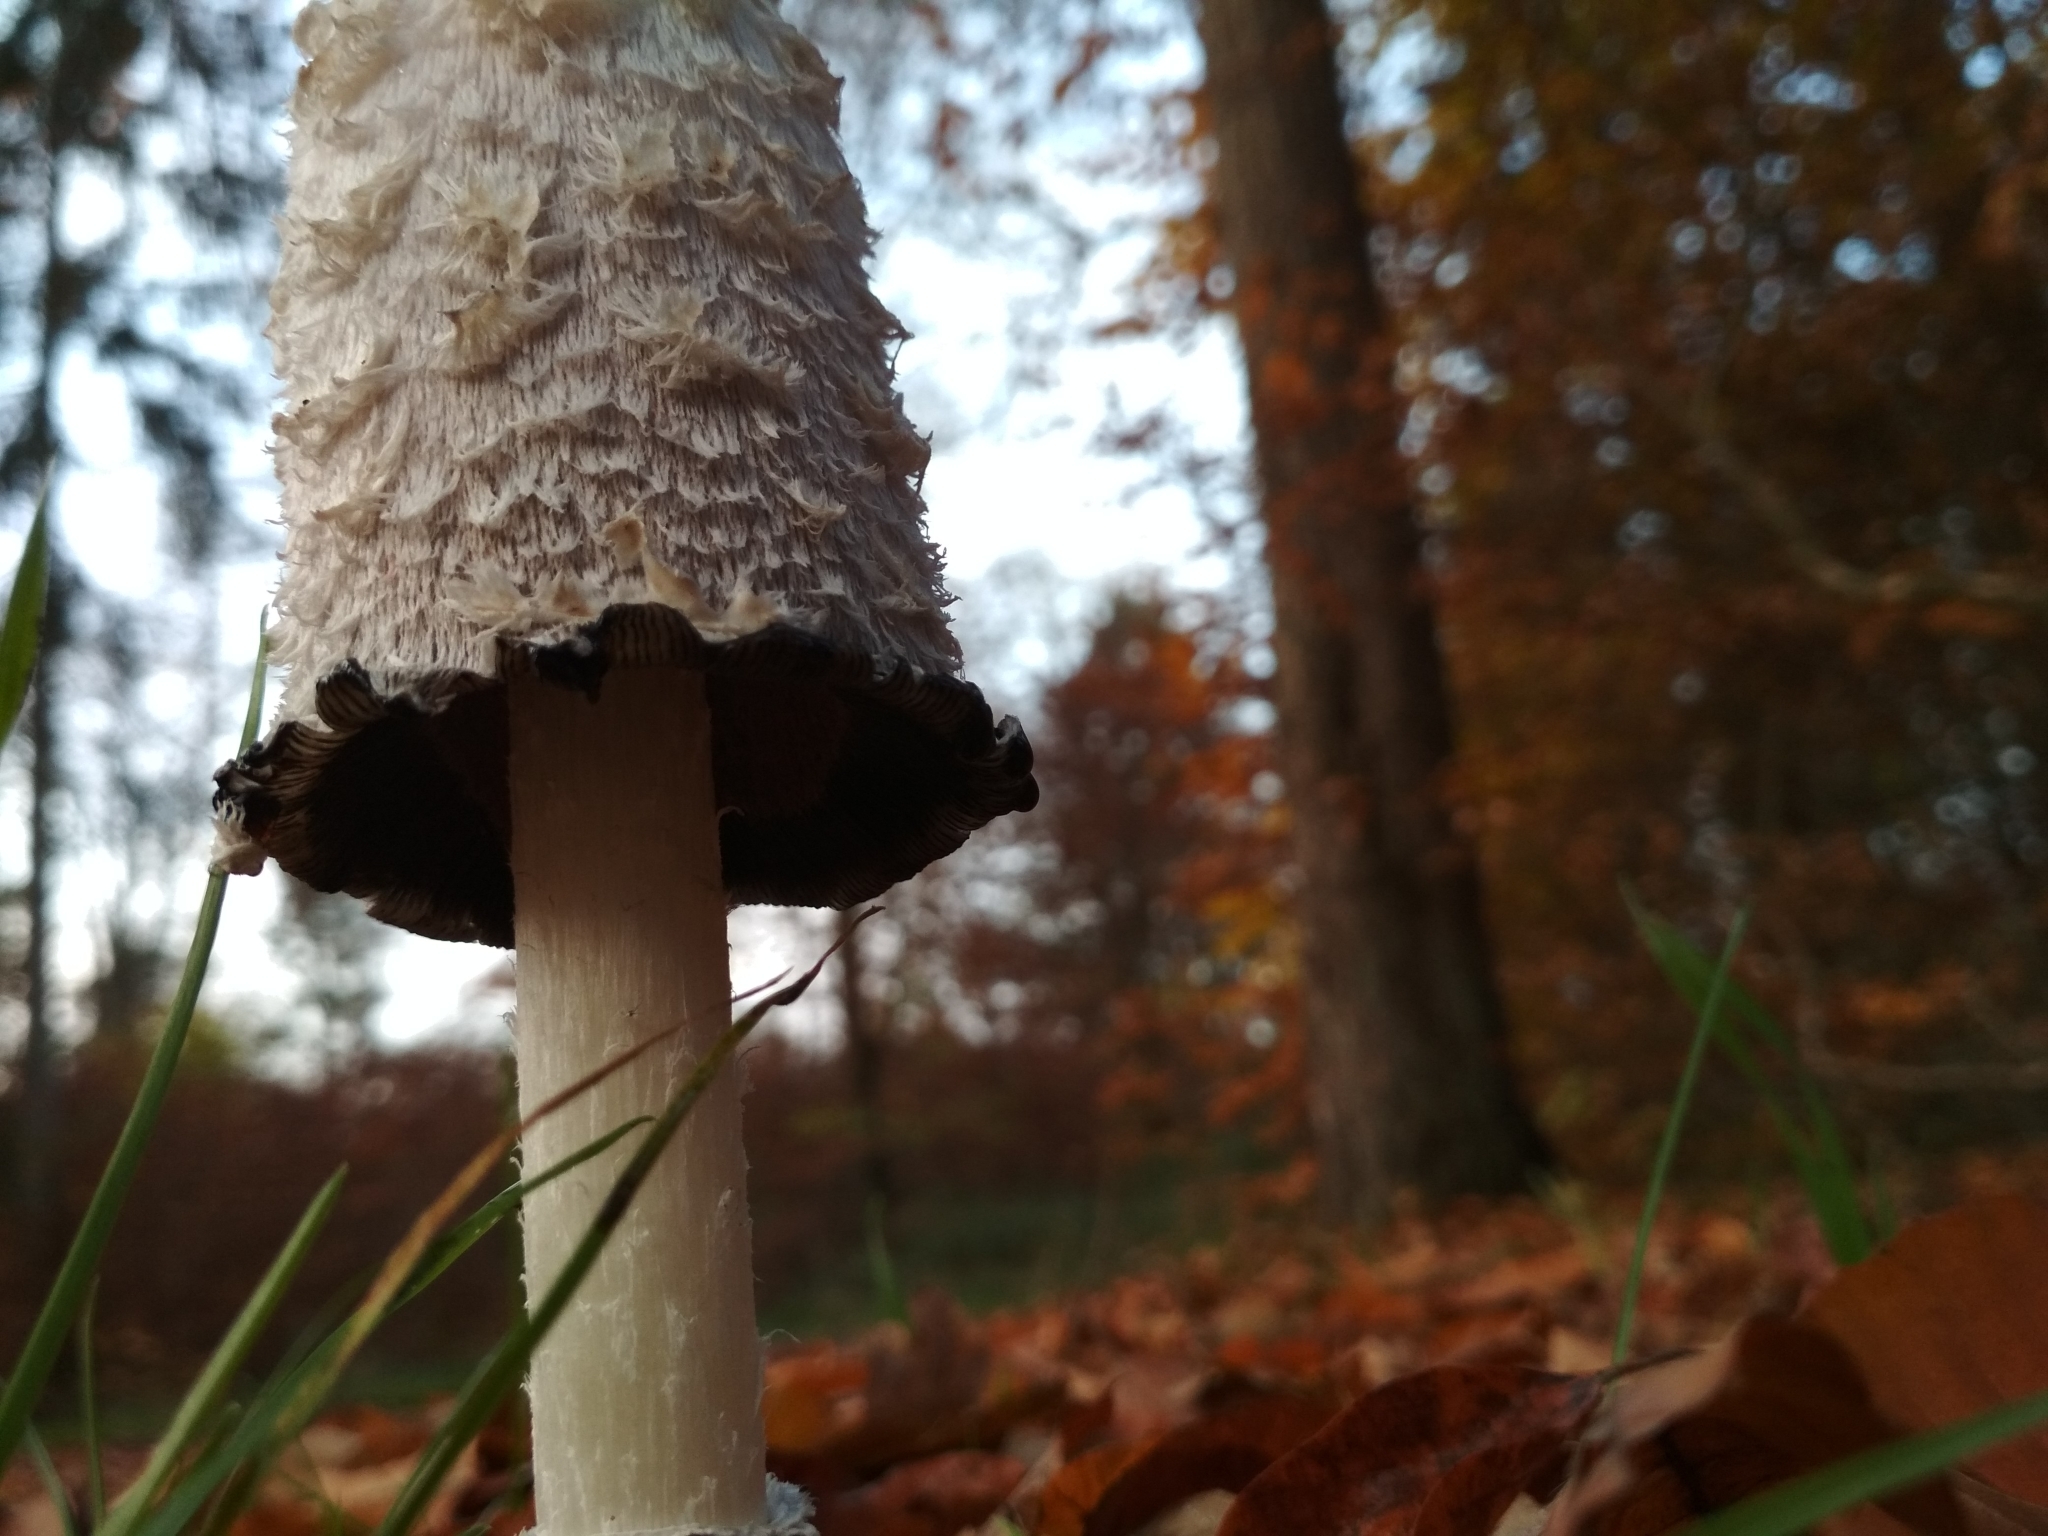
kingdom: Fungi
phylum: Basidiomycota
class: Agaricomycetes
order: Agaricales
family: Agaricaceae
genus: Coprinus
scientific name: Coprinus comatus
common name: Lawyer's wig
